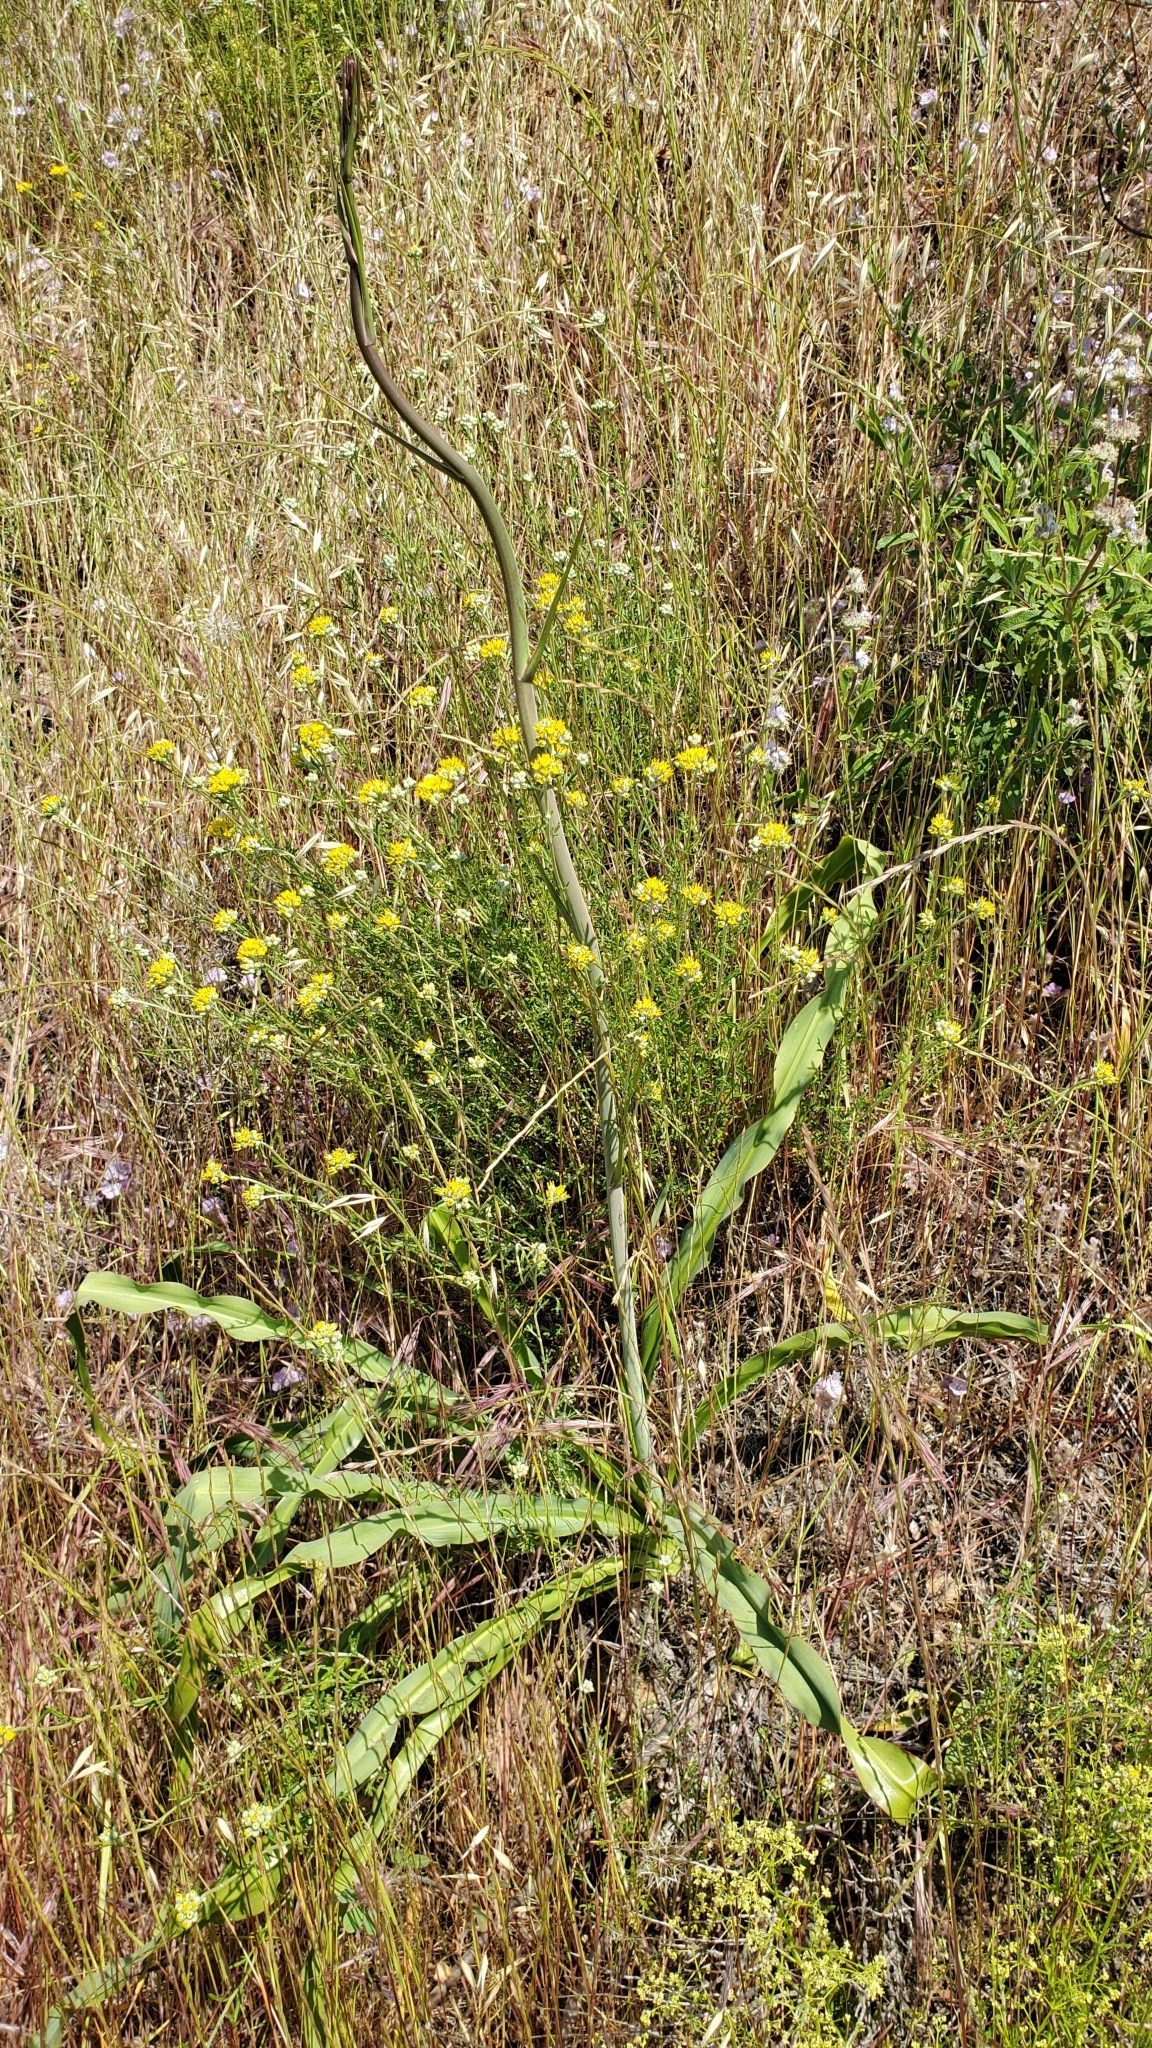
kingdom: Plantae
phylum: Tracheophyta
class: Liliopsida
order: Asparagales
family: Asparagaceae
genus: Chlorogalum
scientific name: Chlorogalum pomeridianum
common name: Amole
